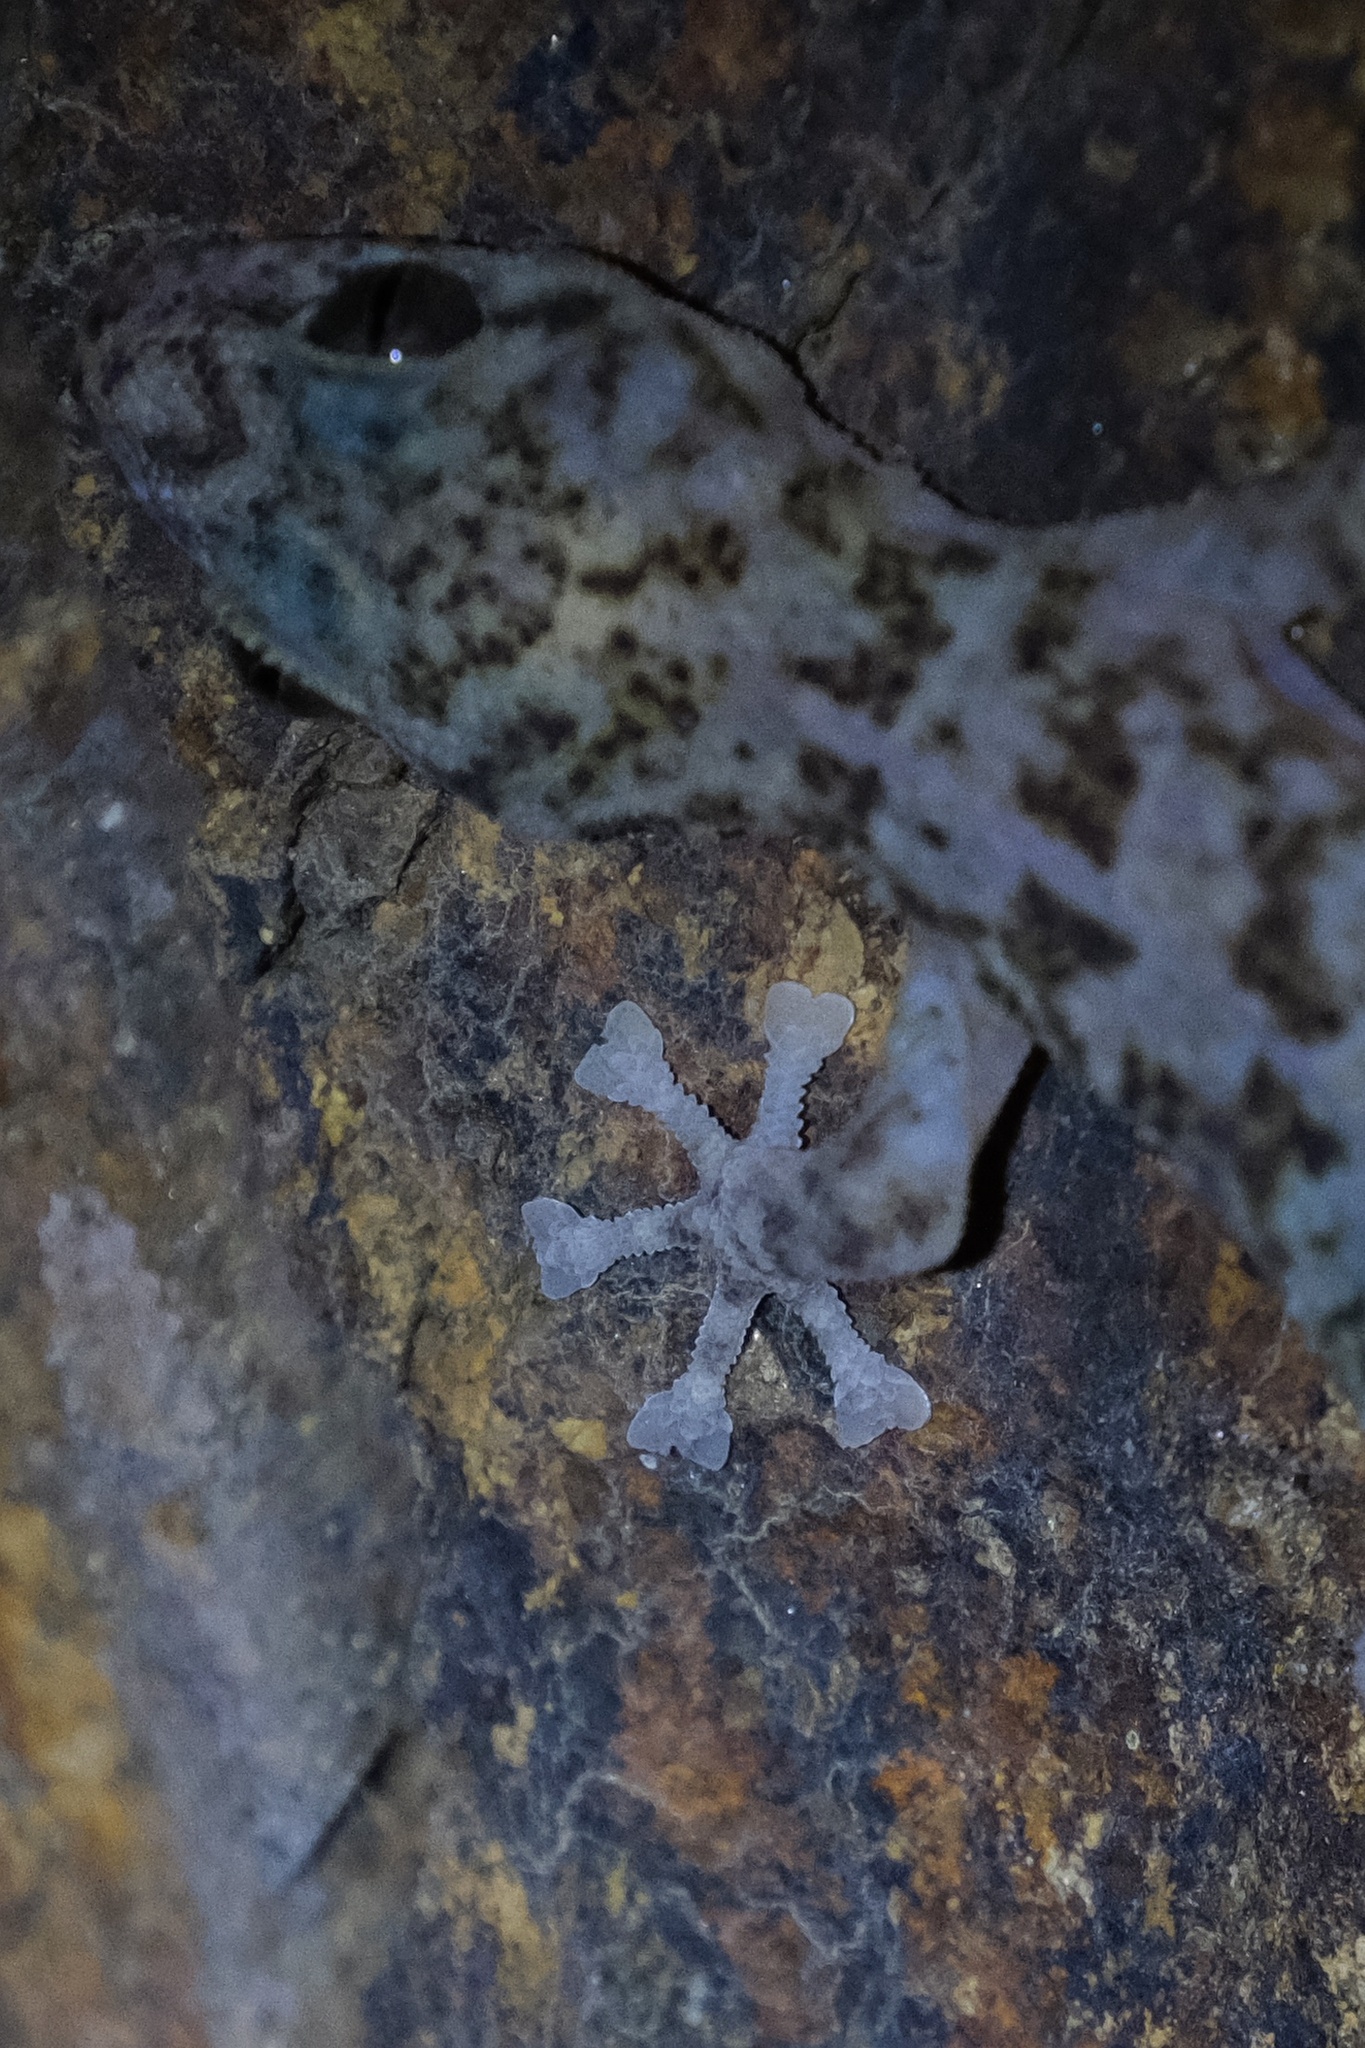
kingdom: Animalia
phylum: Chordata
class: Squamata
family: Phyllodactylidae
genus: Phyllodactylus
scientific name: Phyllodactylus nocticolus
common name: Peninsula leaf-toed gecko
